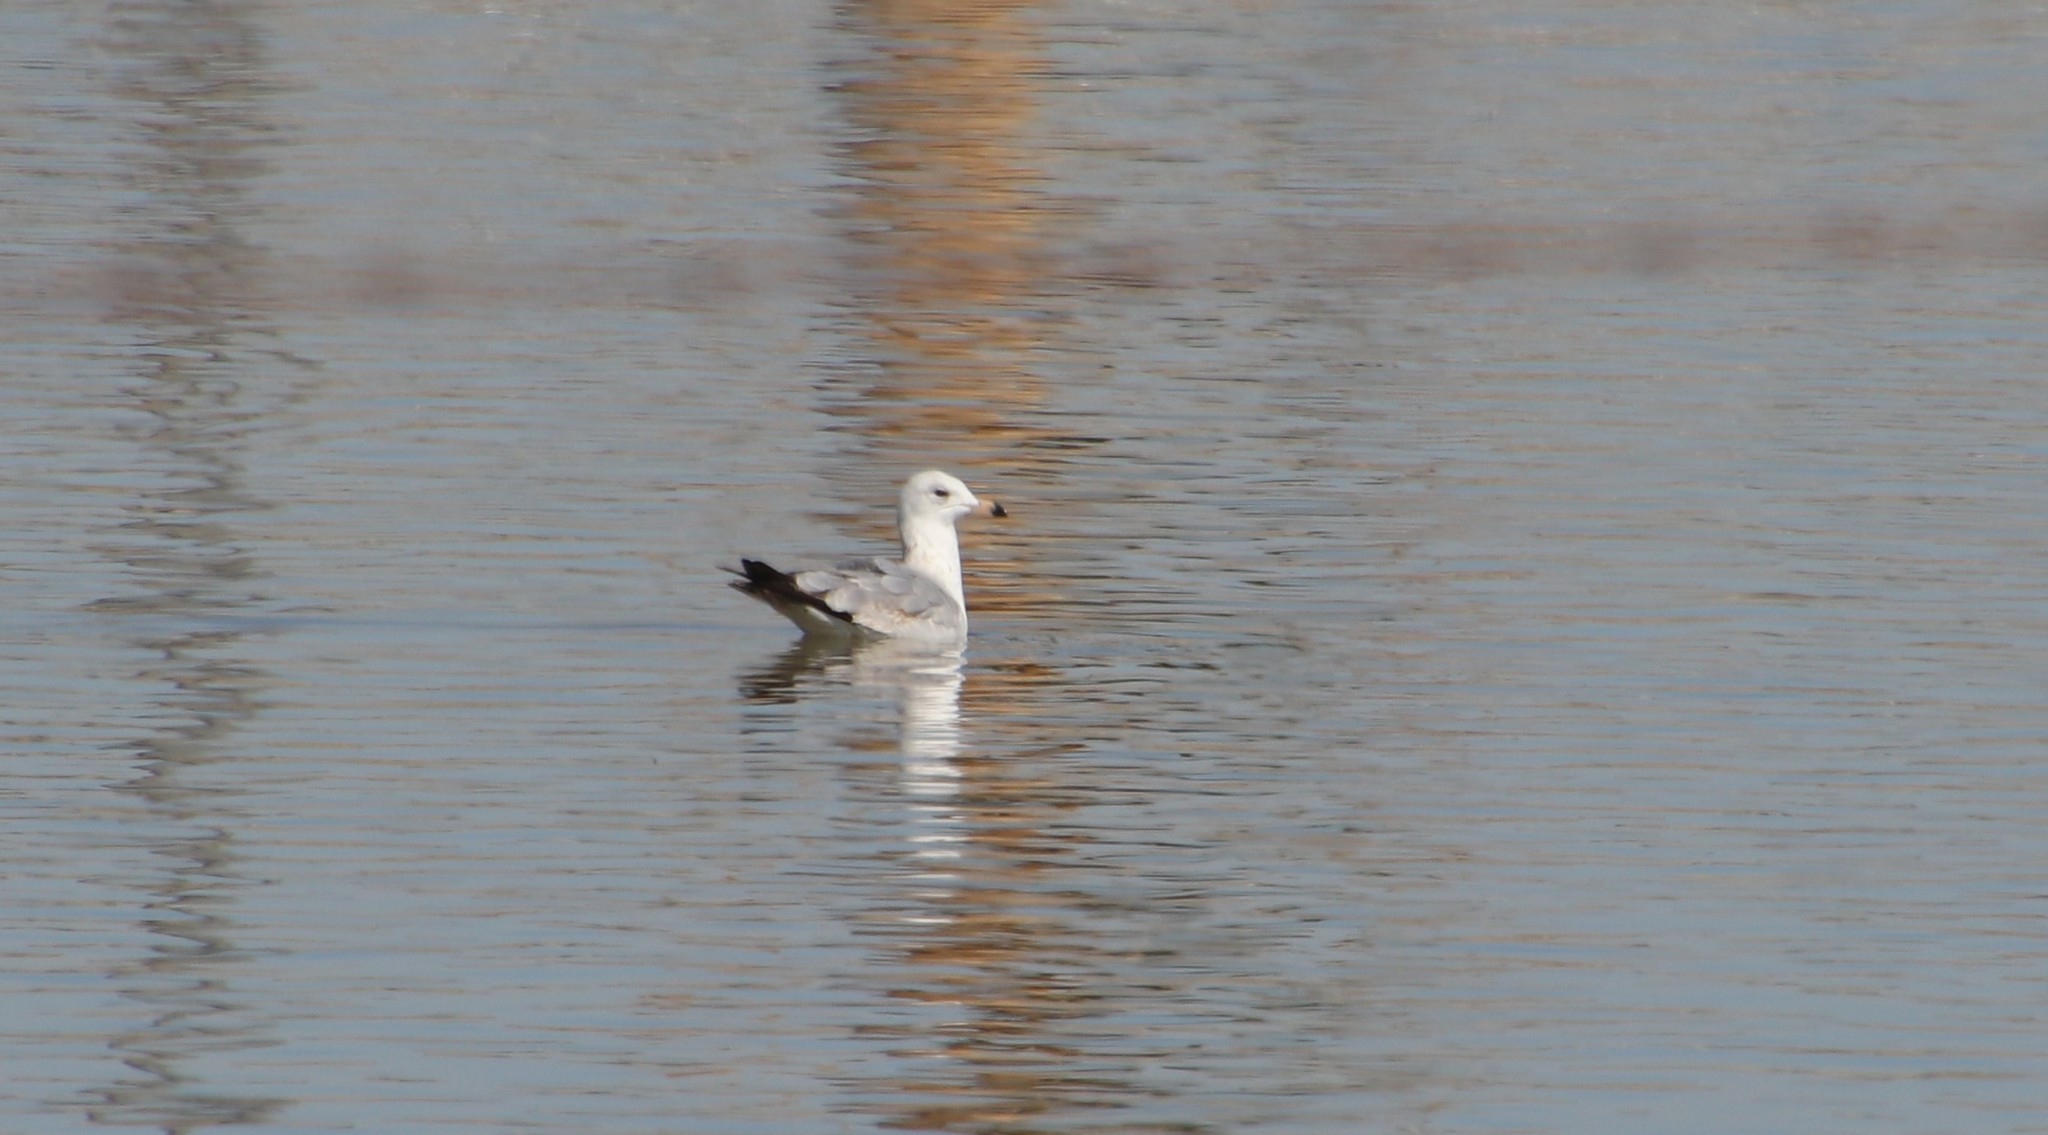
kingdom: Animalia
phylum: Chordata
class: Aves
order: Charadriiformes
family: Laridae
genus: Larus
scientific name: Larus delawarensis
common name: Ring-billed gull
